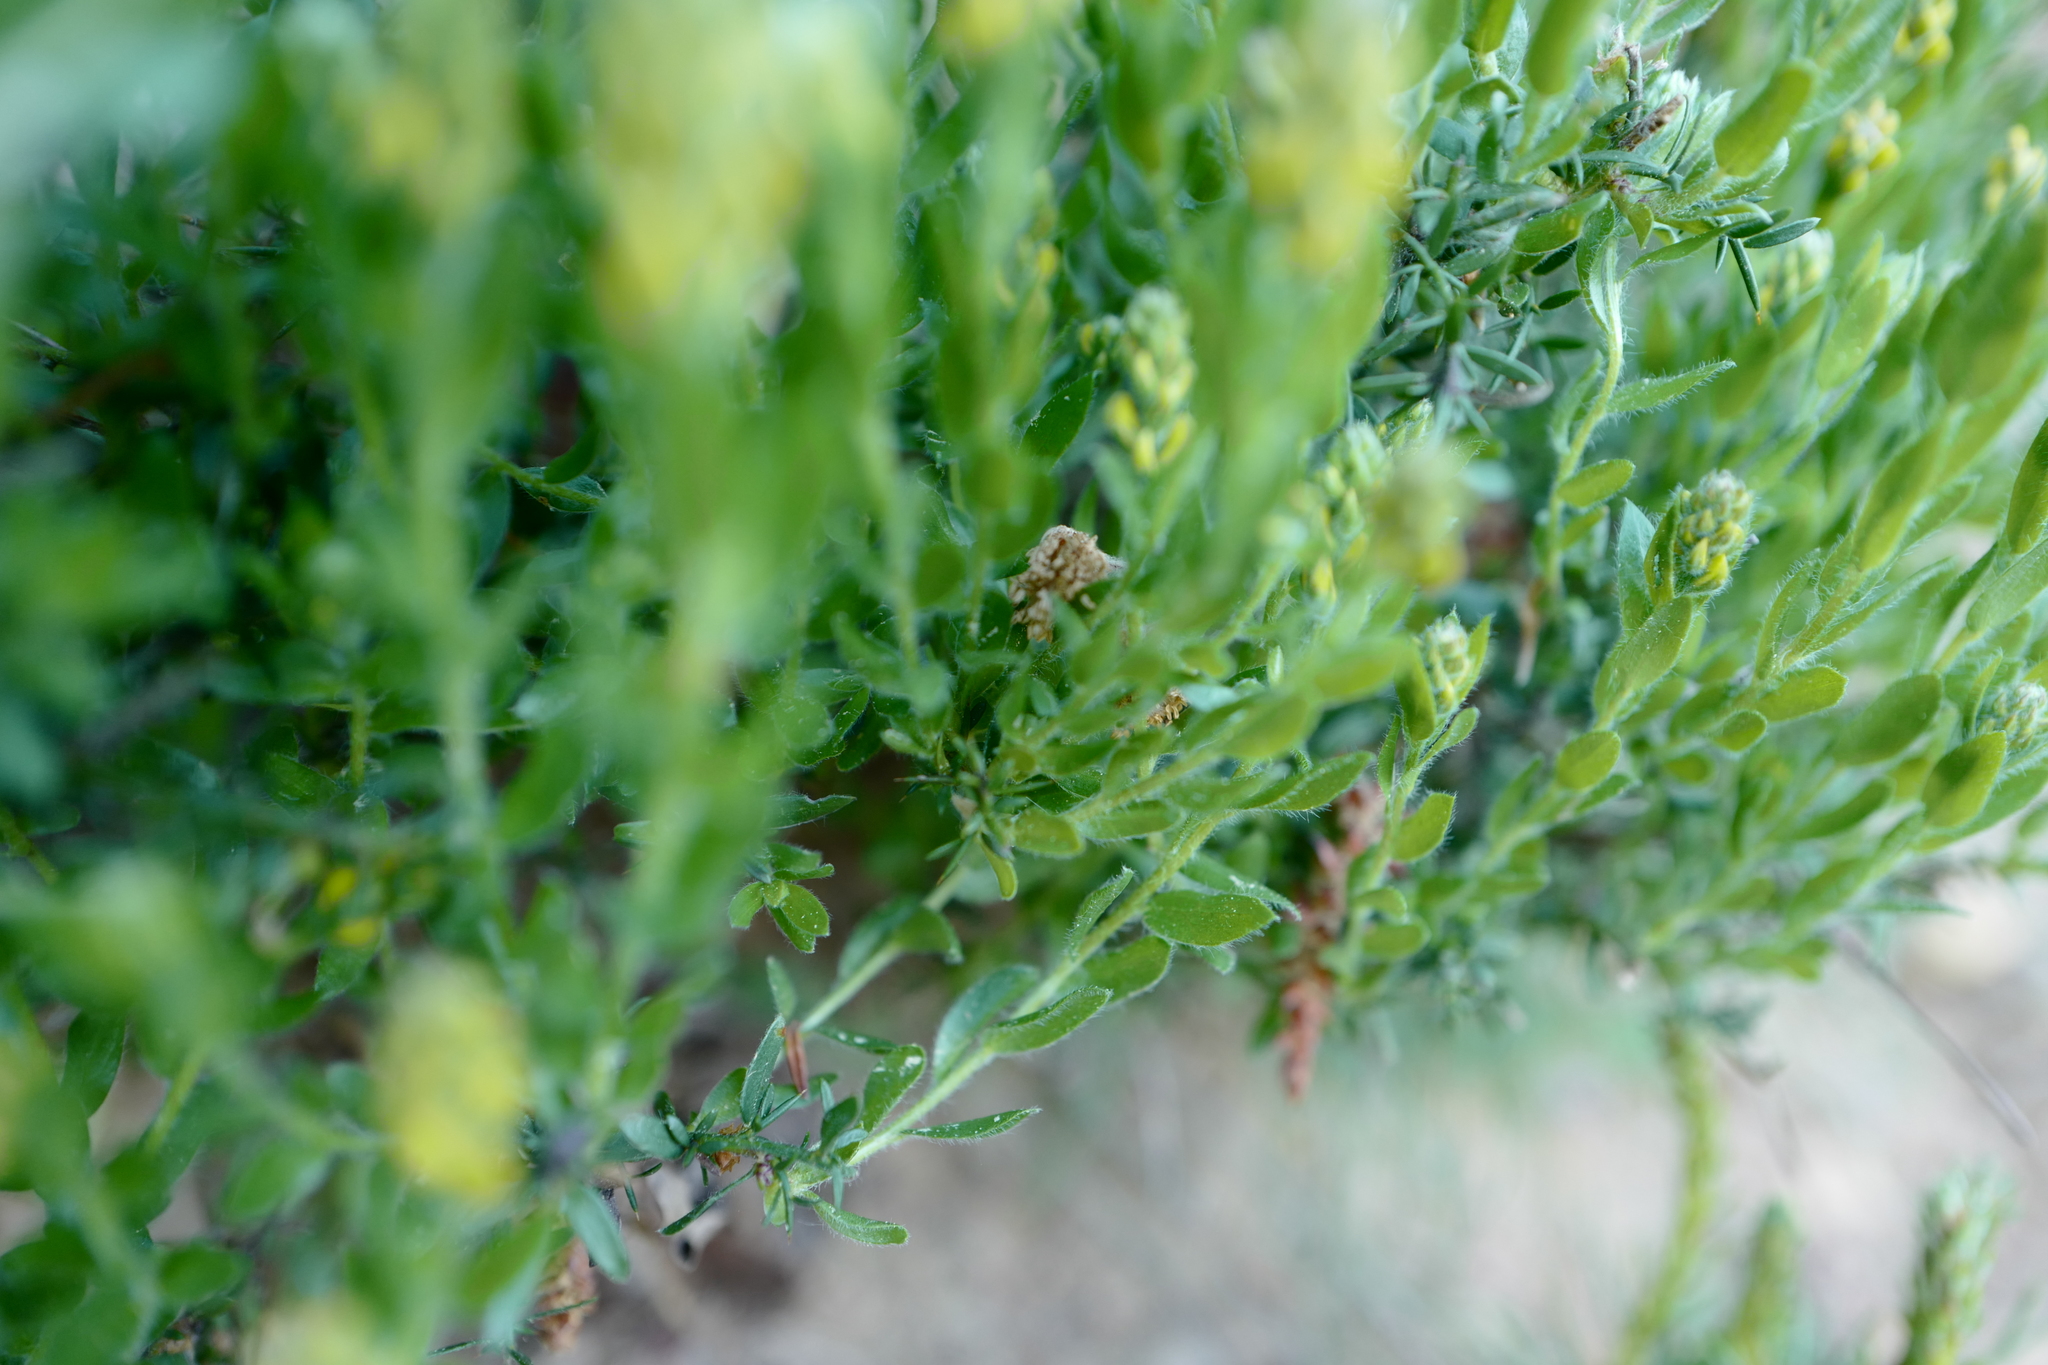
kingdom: Plantae
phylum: Tracheophyta
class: Magnoliopsida
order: Fabales
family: Fabaceae
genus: Genista
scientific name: Genista germanica
